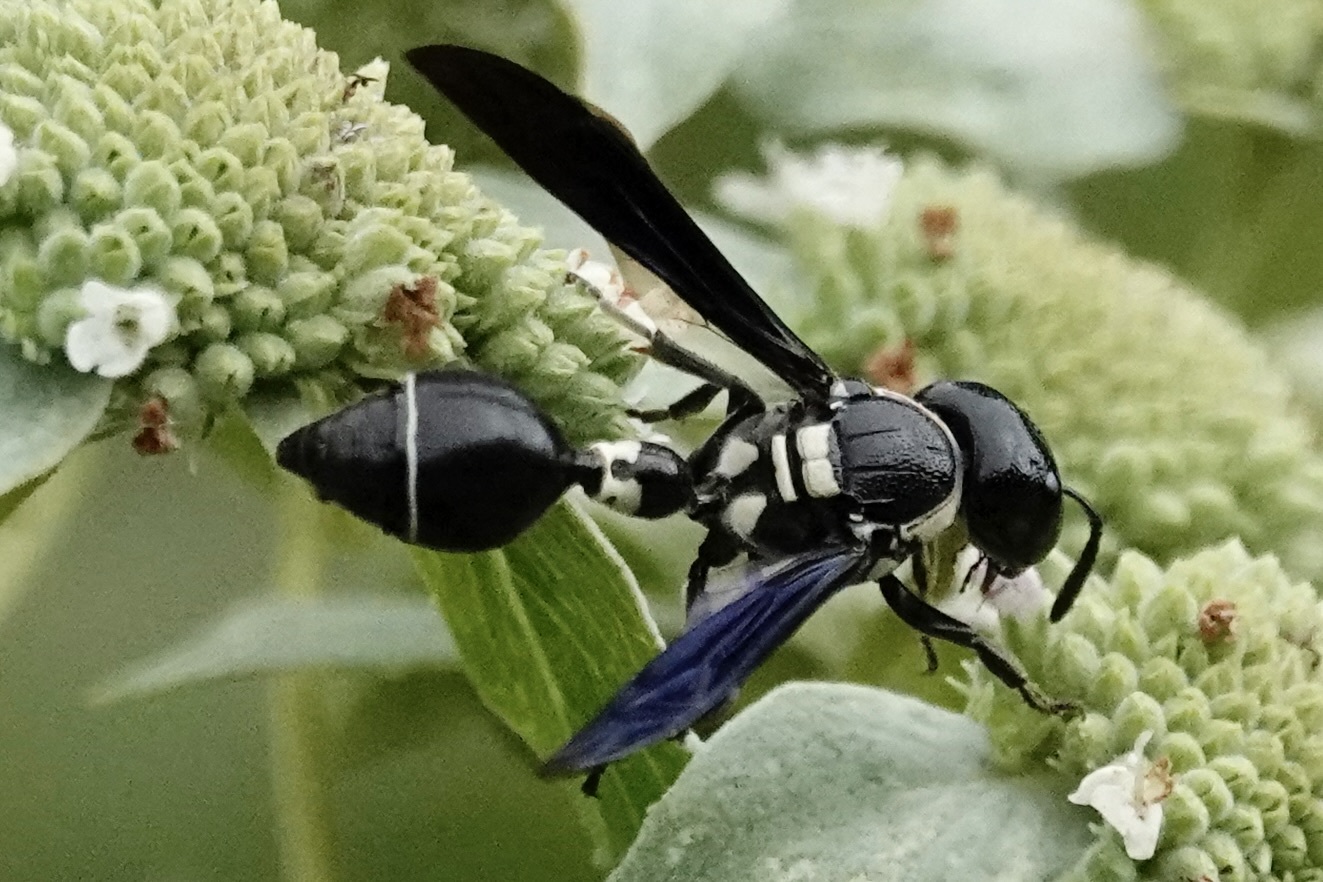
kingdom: Animalia
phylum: Arthropoda
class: Insecta
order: Hymenoptera
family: Eumenidae
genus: Zethus
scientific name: Zethus spinipes
